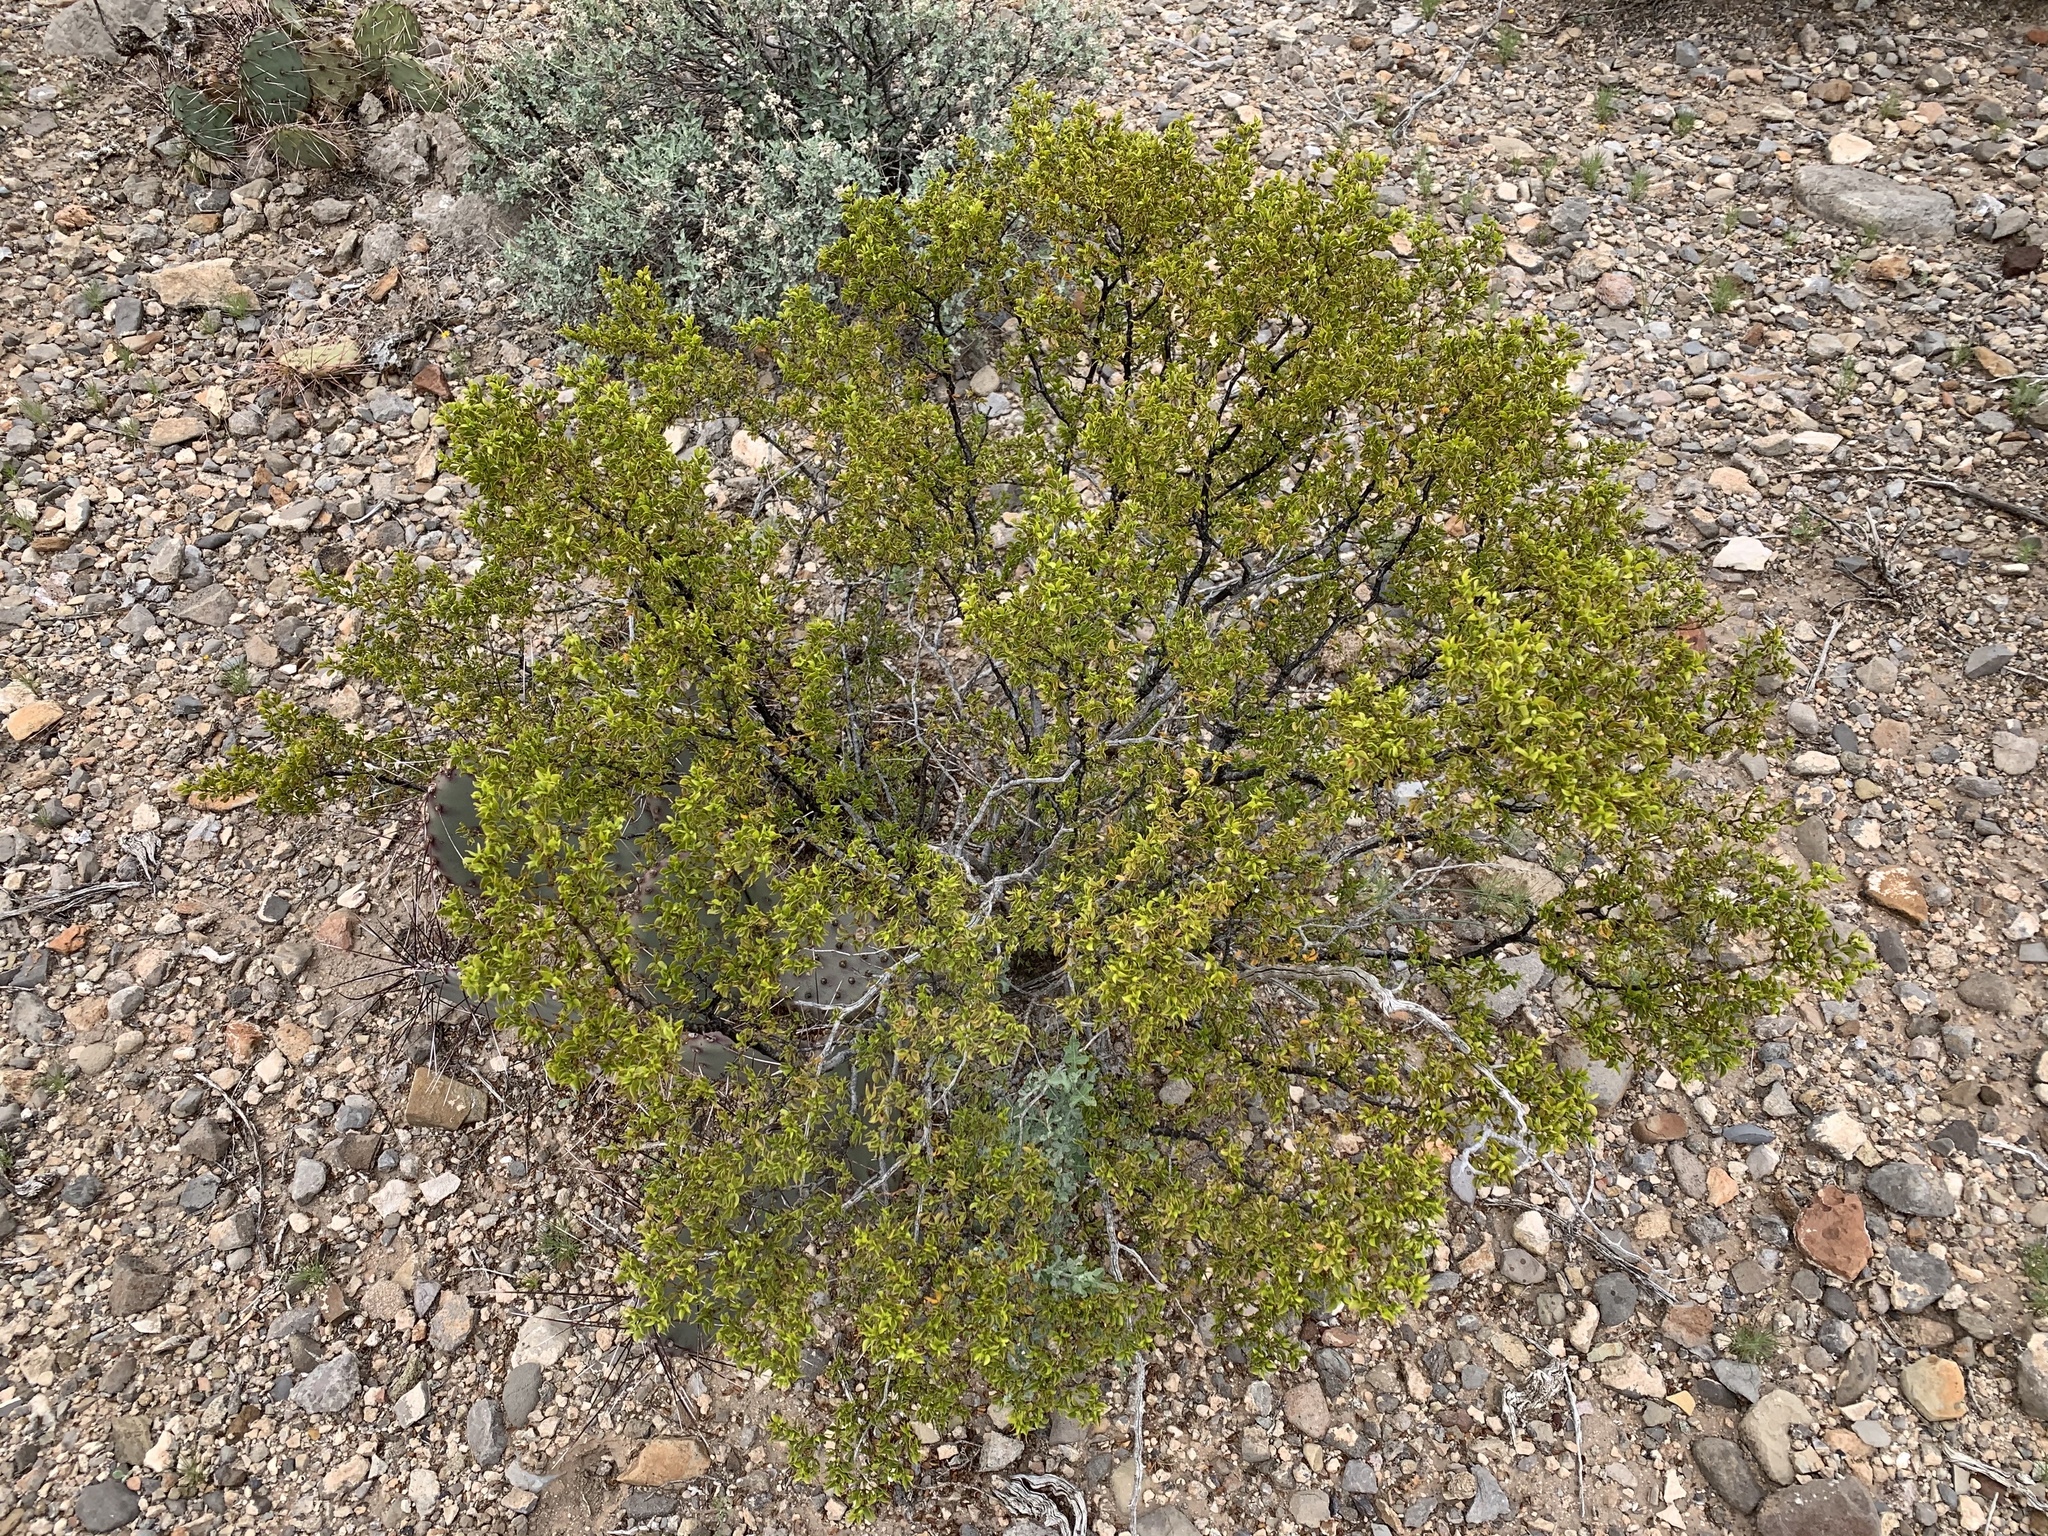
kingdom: Plantae
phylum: Tracheophyta
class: Magnoliopsida
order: Zygophyllales
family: Zygophyllaceae
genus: Larrea
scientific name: Larrea tridentata
